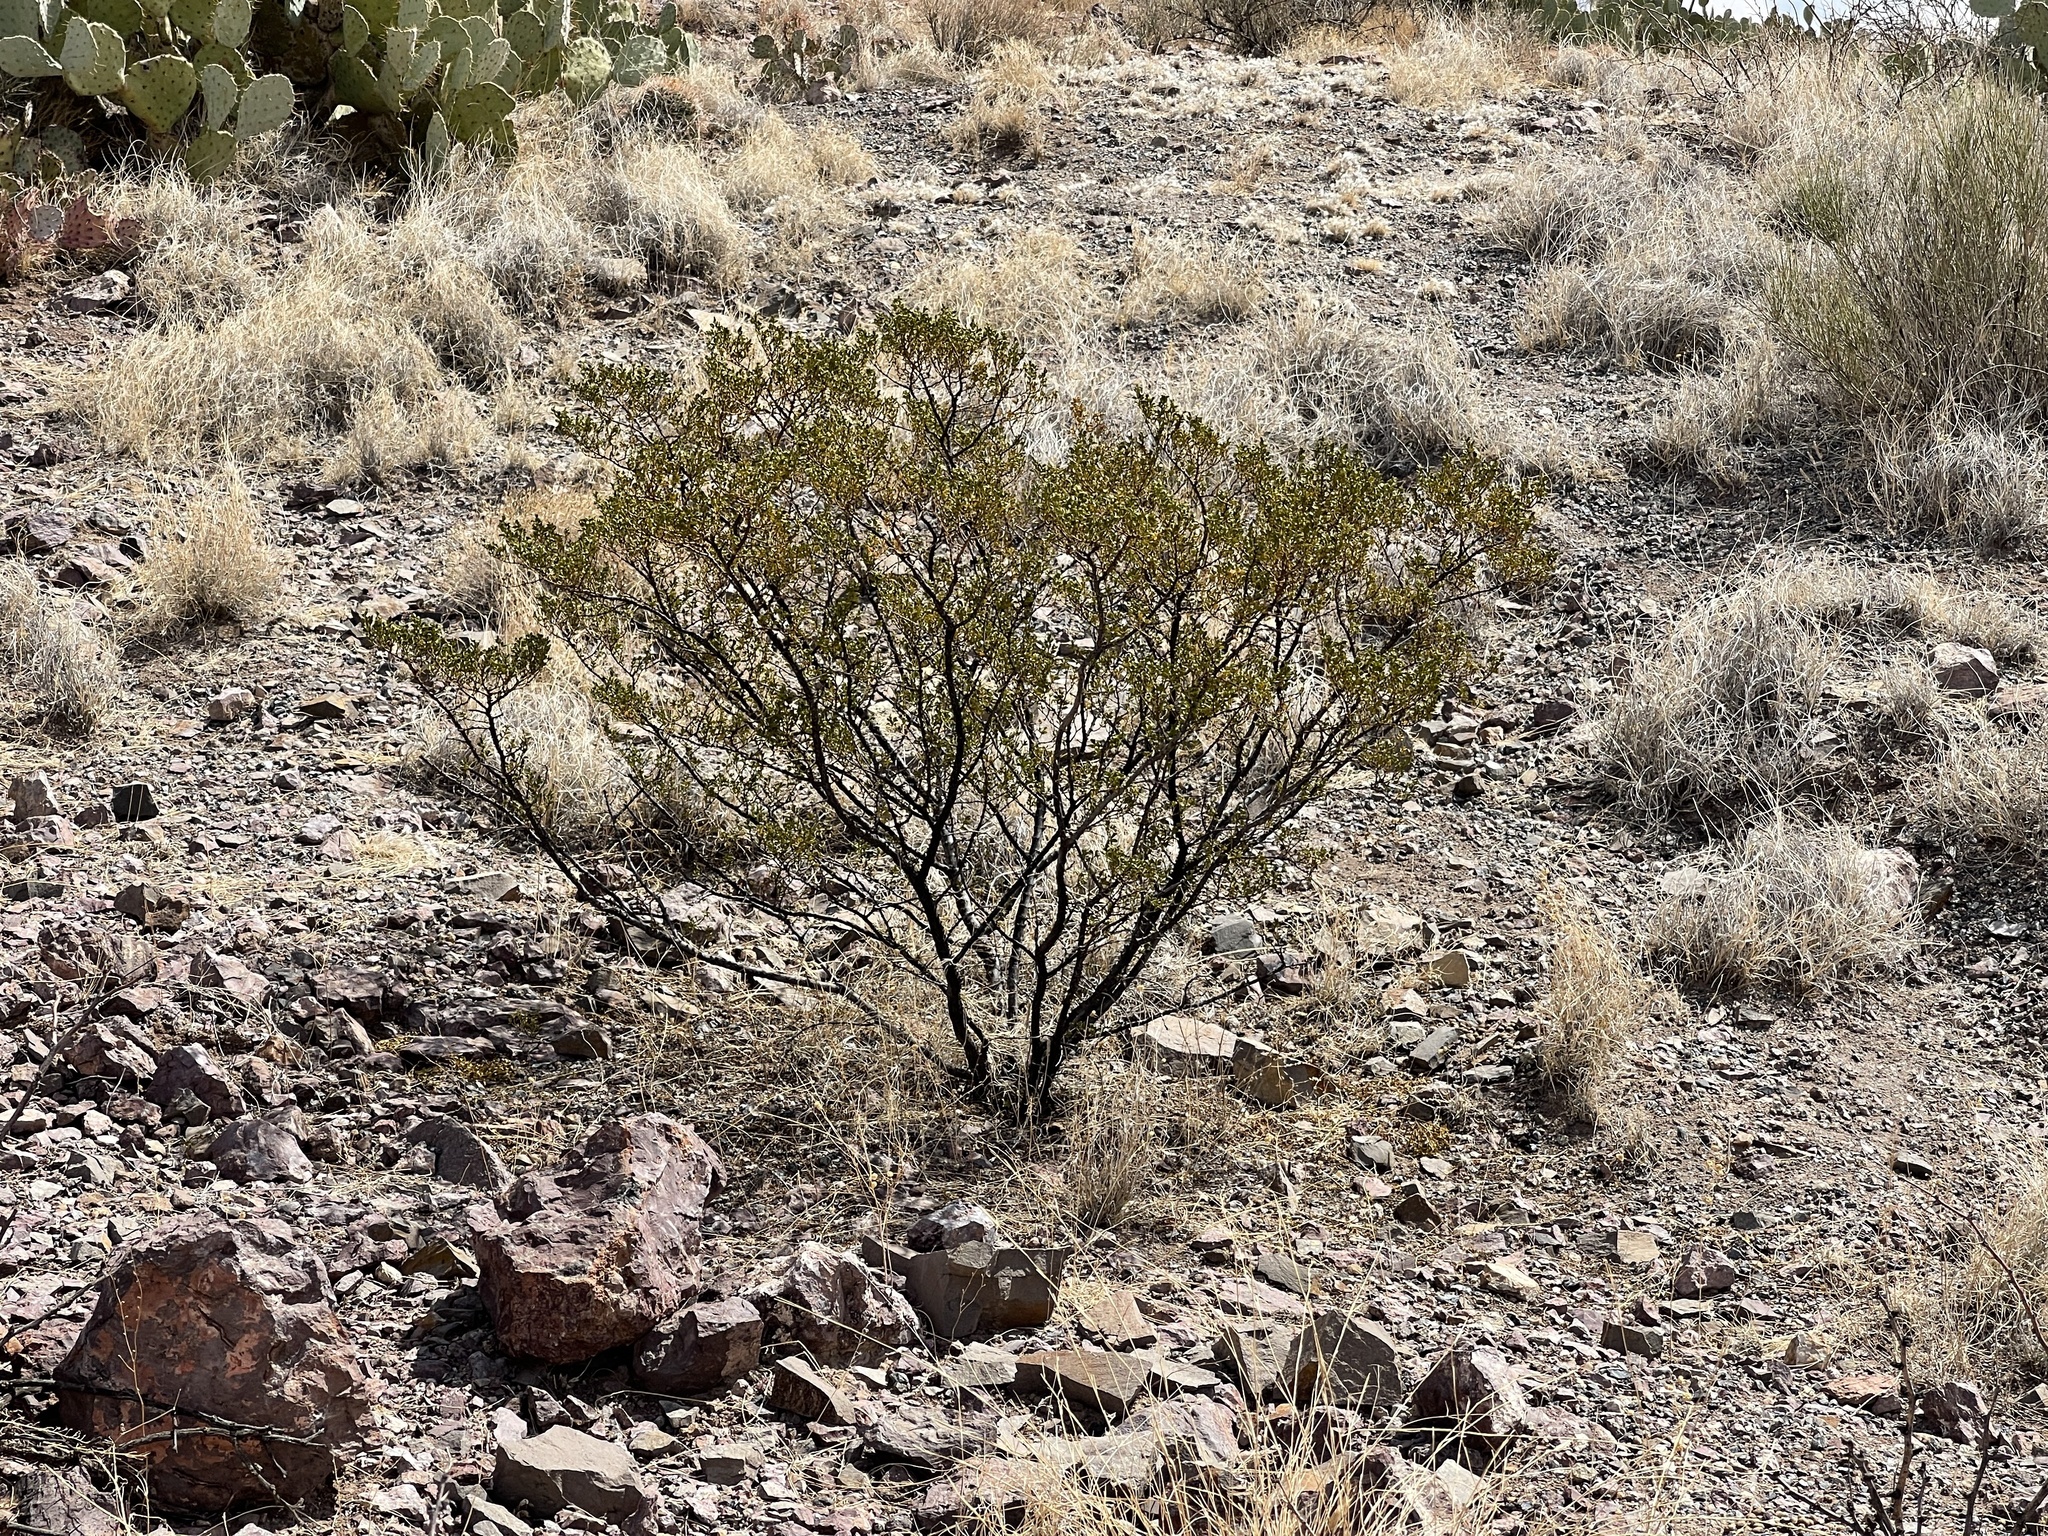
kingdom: Plantae
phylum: Tracheophyta
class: Magnoliopsida
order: Zygophyllales
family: Zygophyllaceae
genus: Larrea
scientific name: Larrea tridentata
